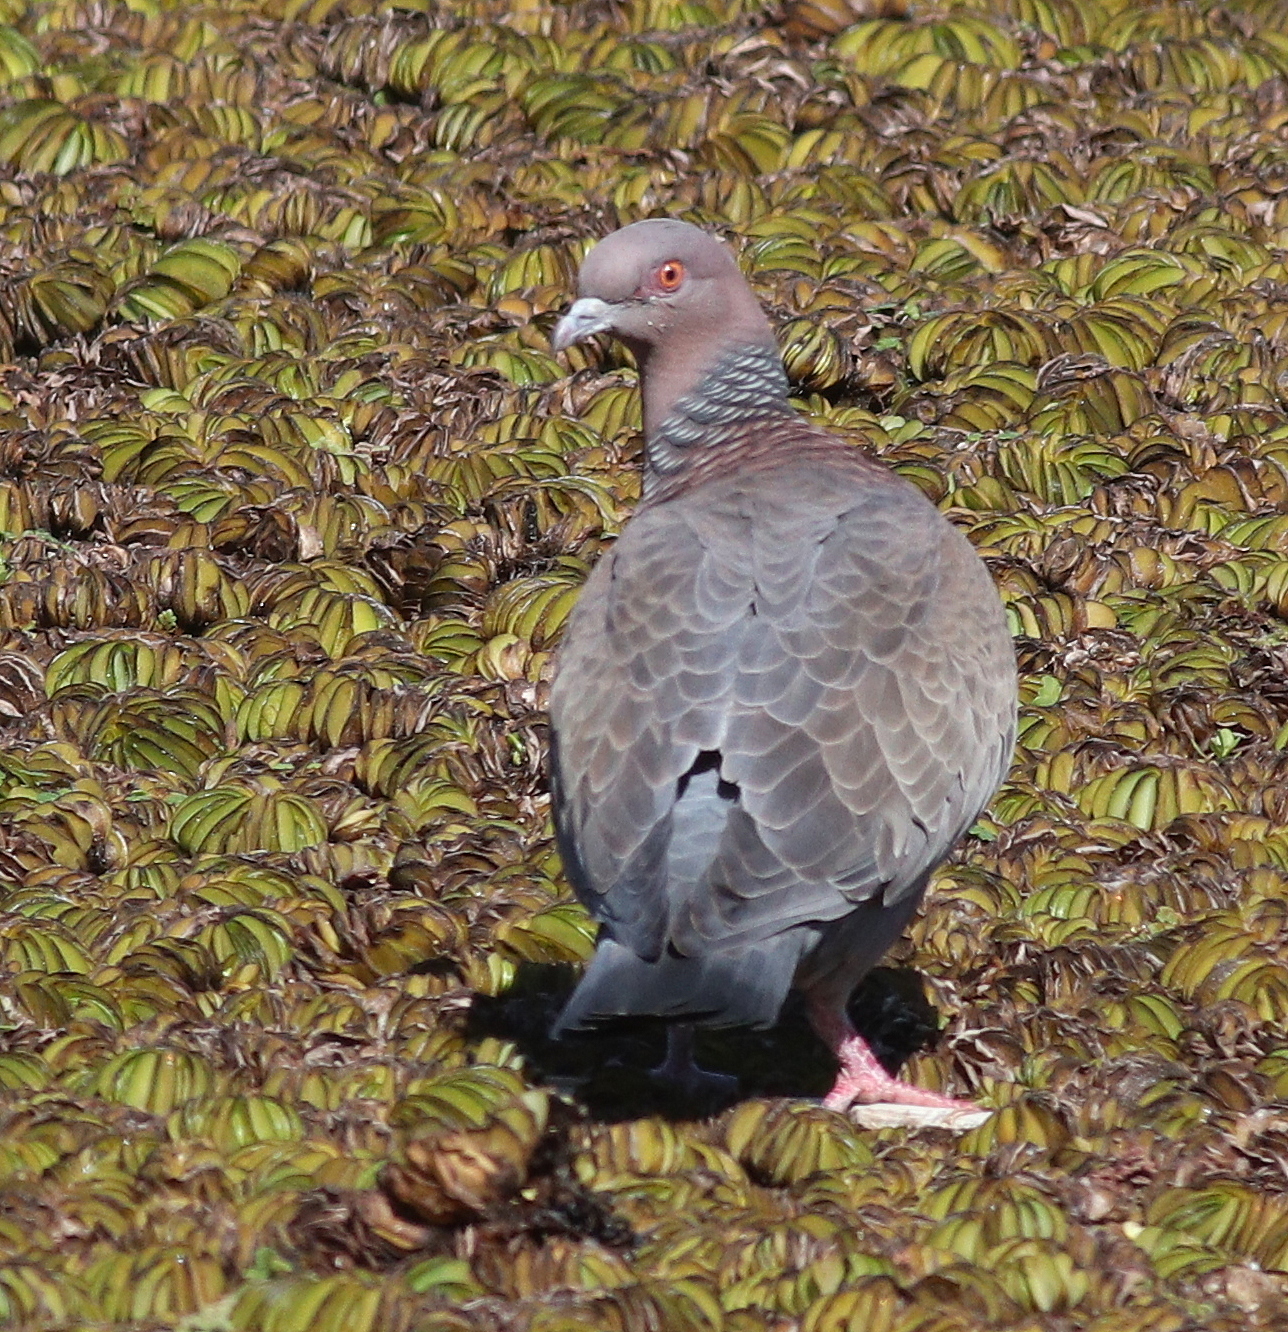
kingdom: Animalia
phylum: Chordata
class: Aves
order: Columbiformes
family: Columbidae
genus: Patagioenas
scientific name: Patagioenas picazuro
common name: Picazuro pigeon
